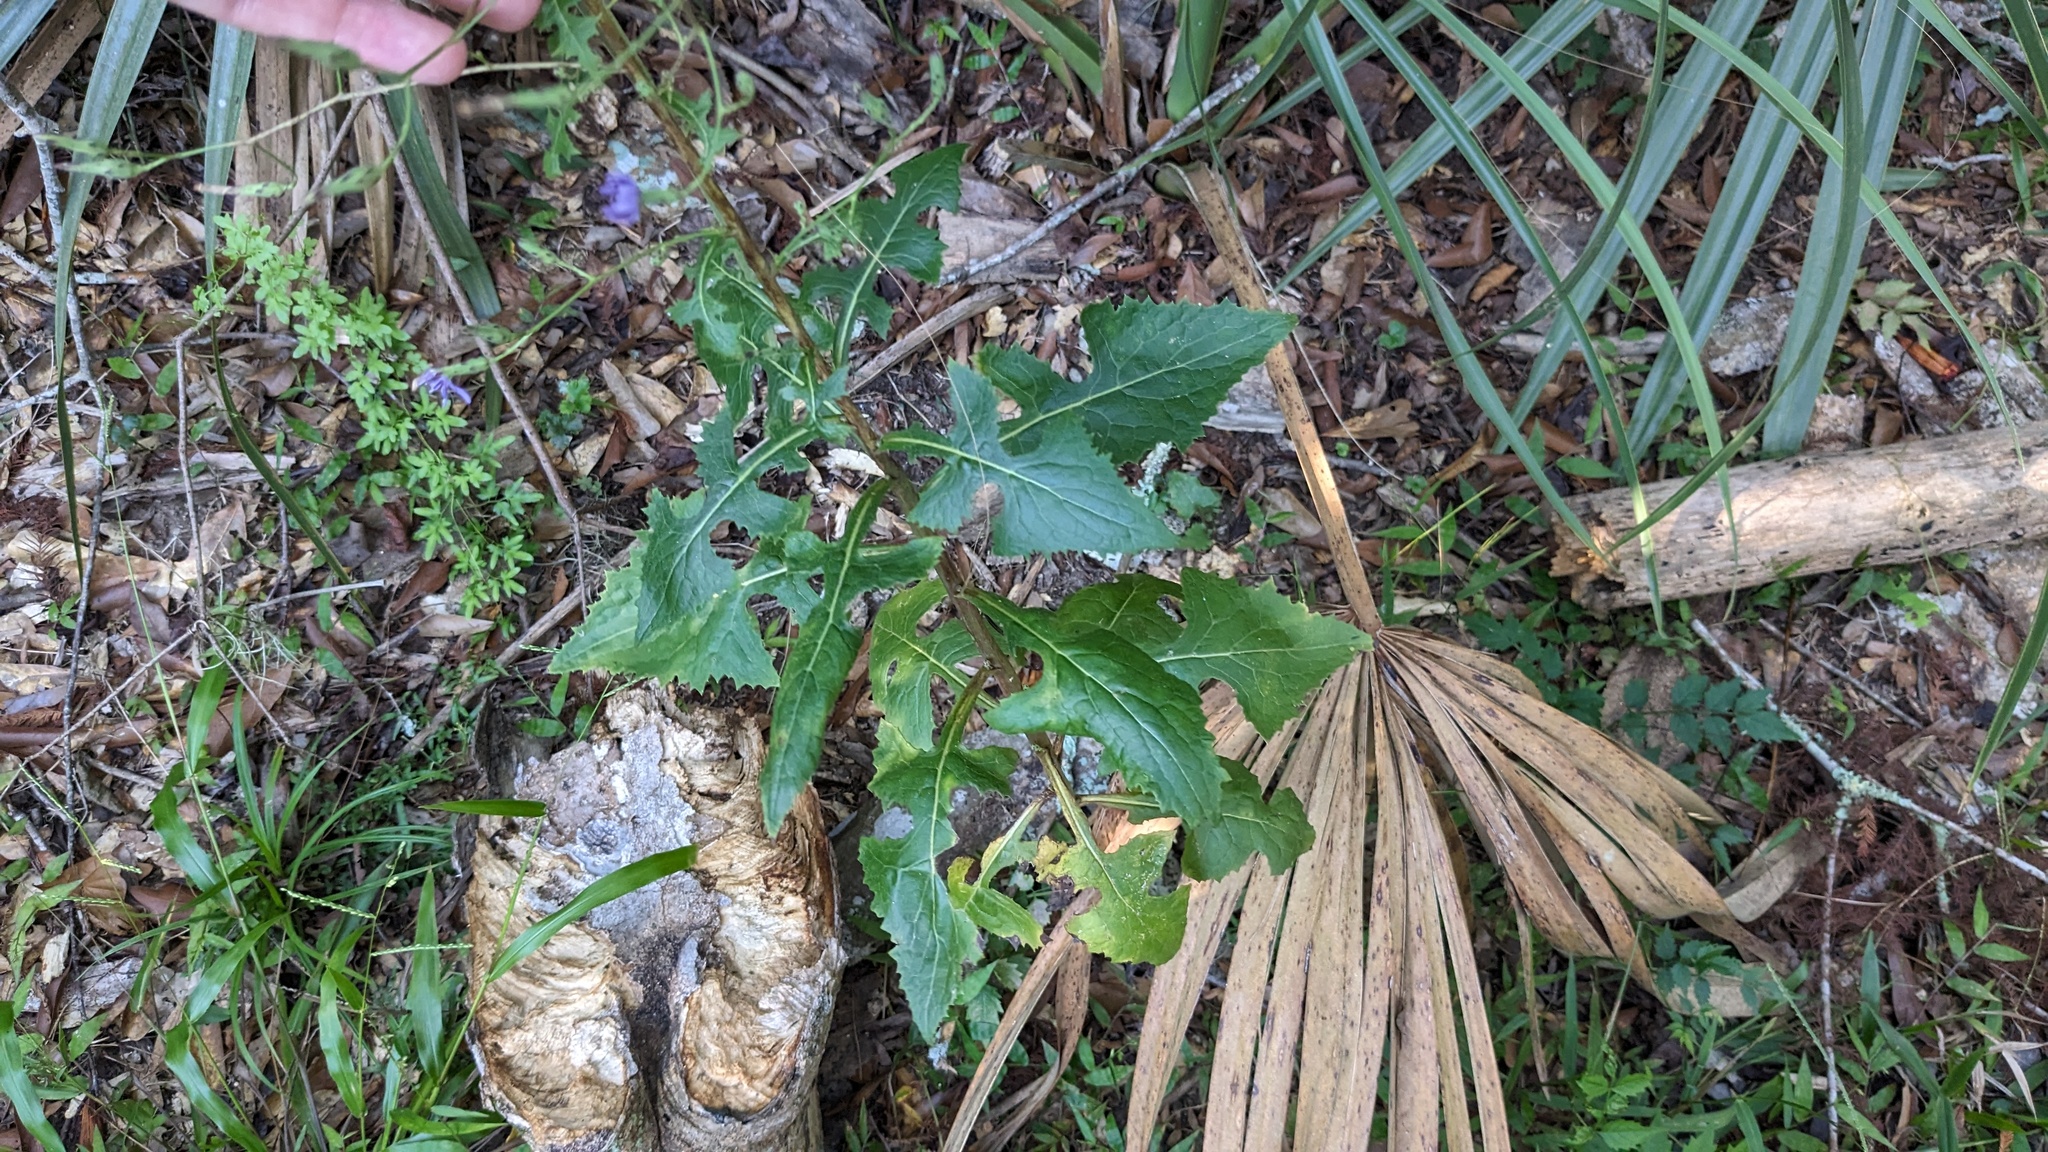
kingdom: Plantae
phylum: Tracheophyta
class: Magnoliopsida
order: Asterales
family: Asteraceae
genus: Lactuca
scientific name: Lactuca floridana
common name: Woodland lettuce
